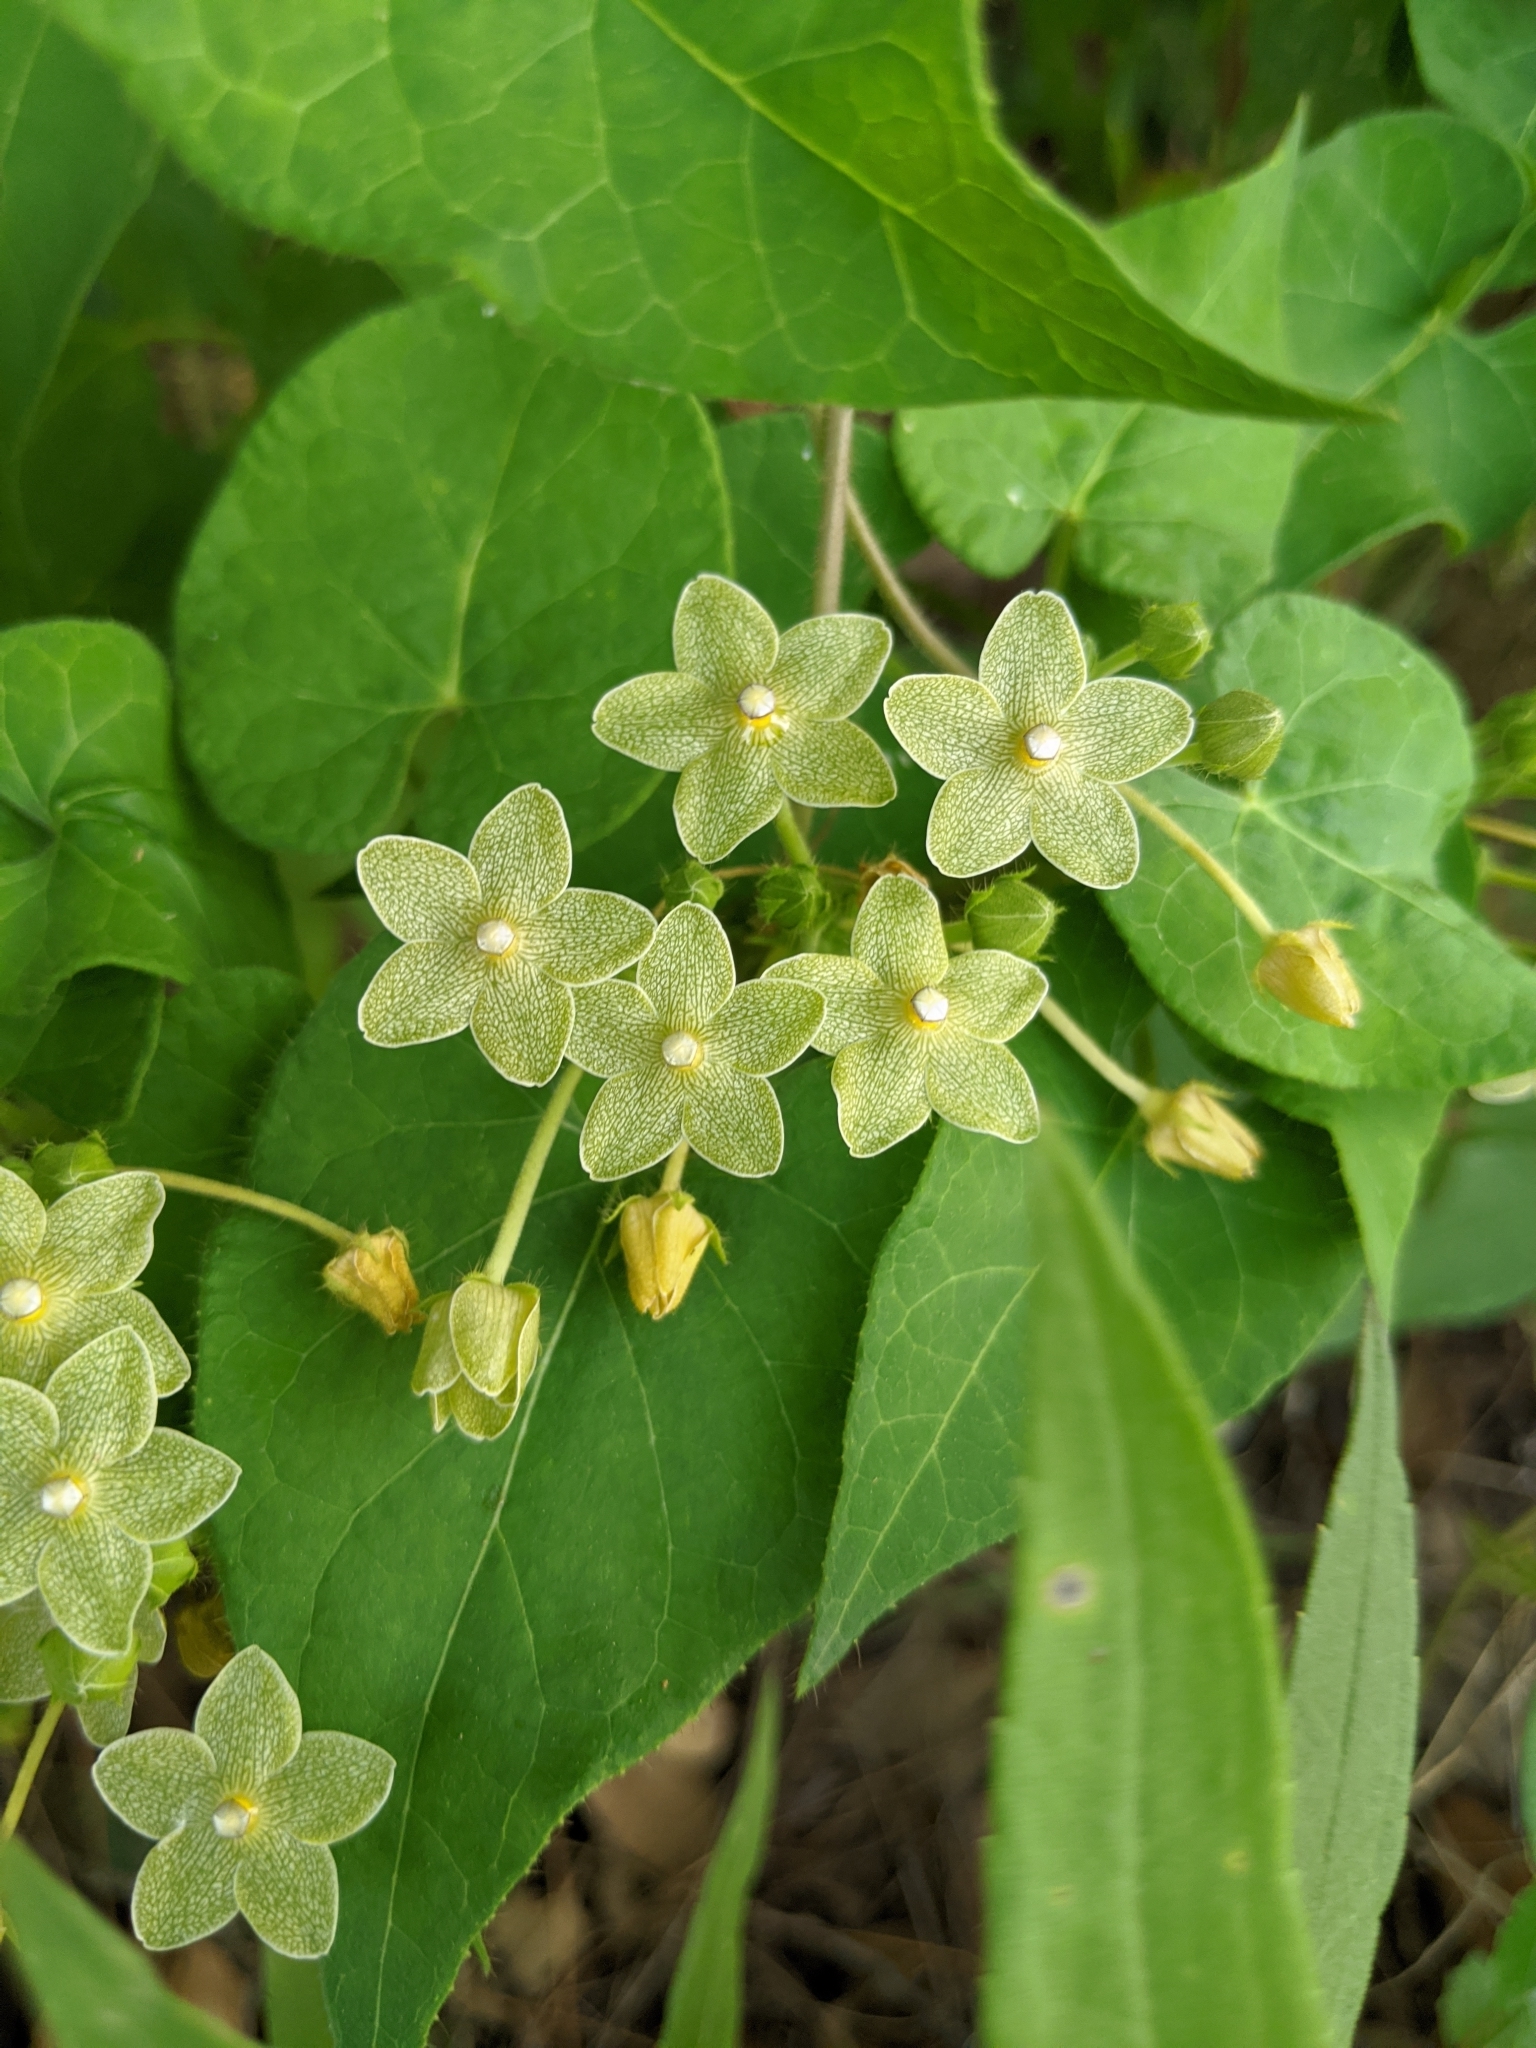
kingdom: Plantae
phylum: Tracheophyta
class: Magnoliopsida
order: Gentianales
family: Apocynaceae
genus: Dictyanthus
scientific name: Dictyanthus reticulatus
